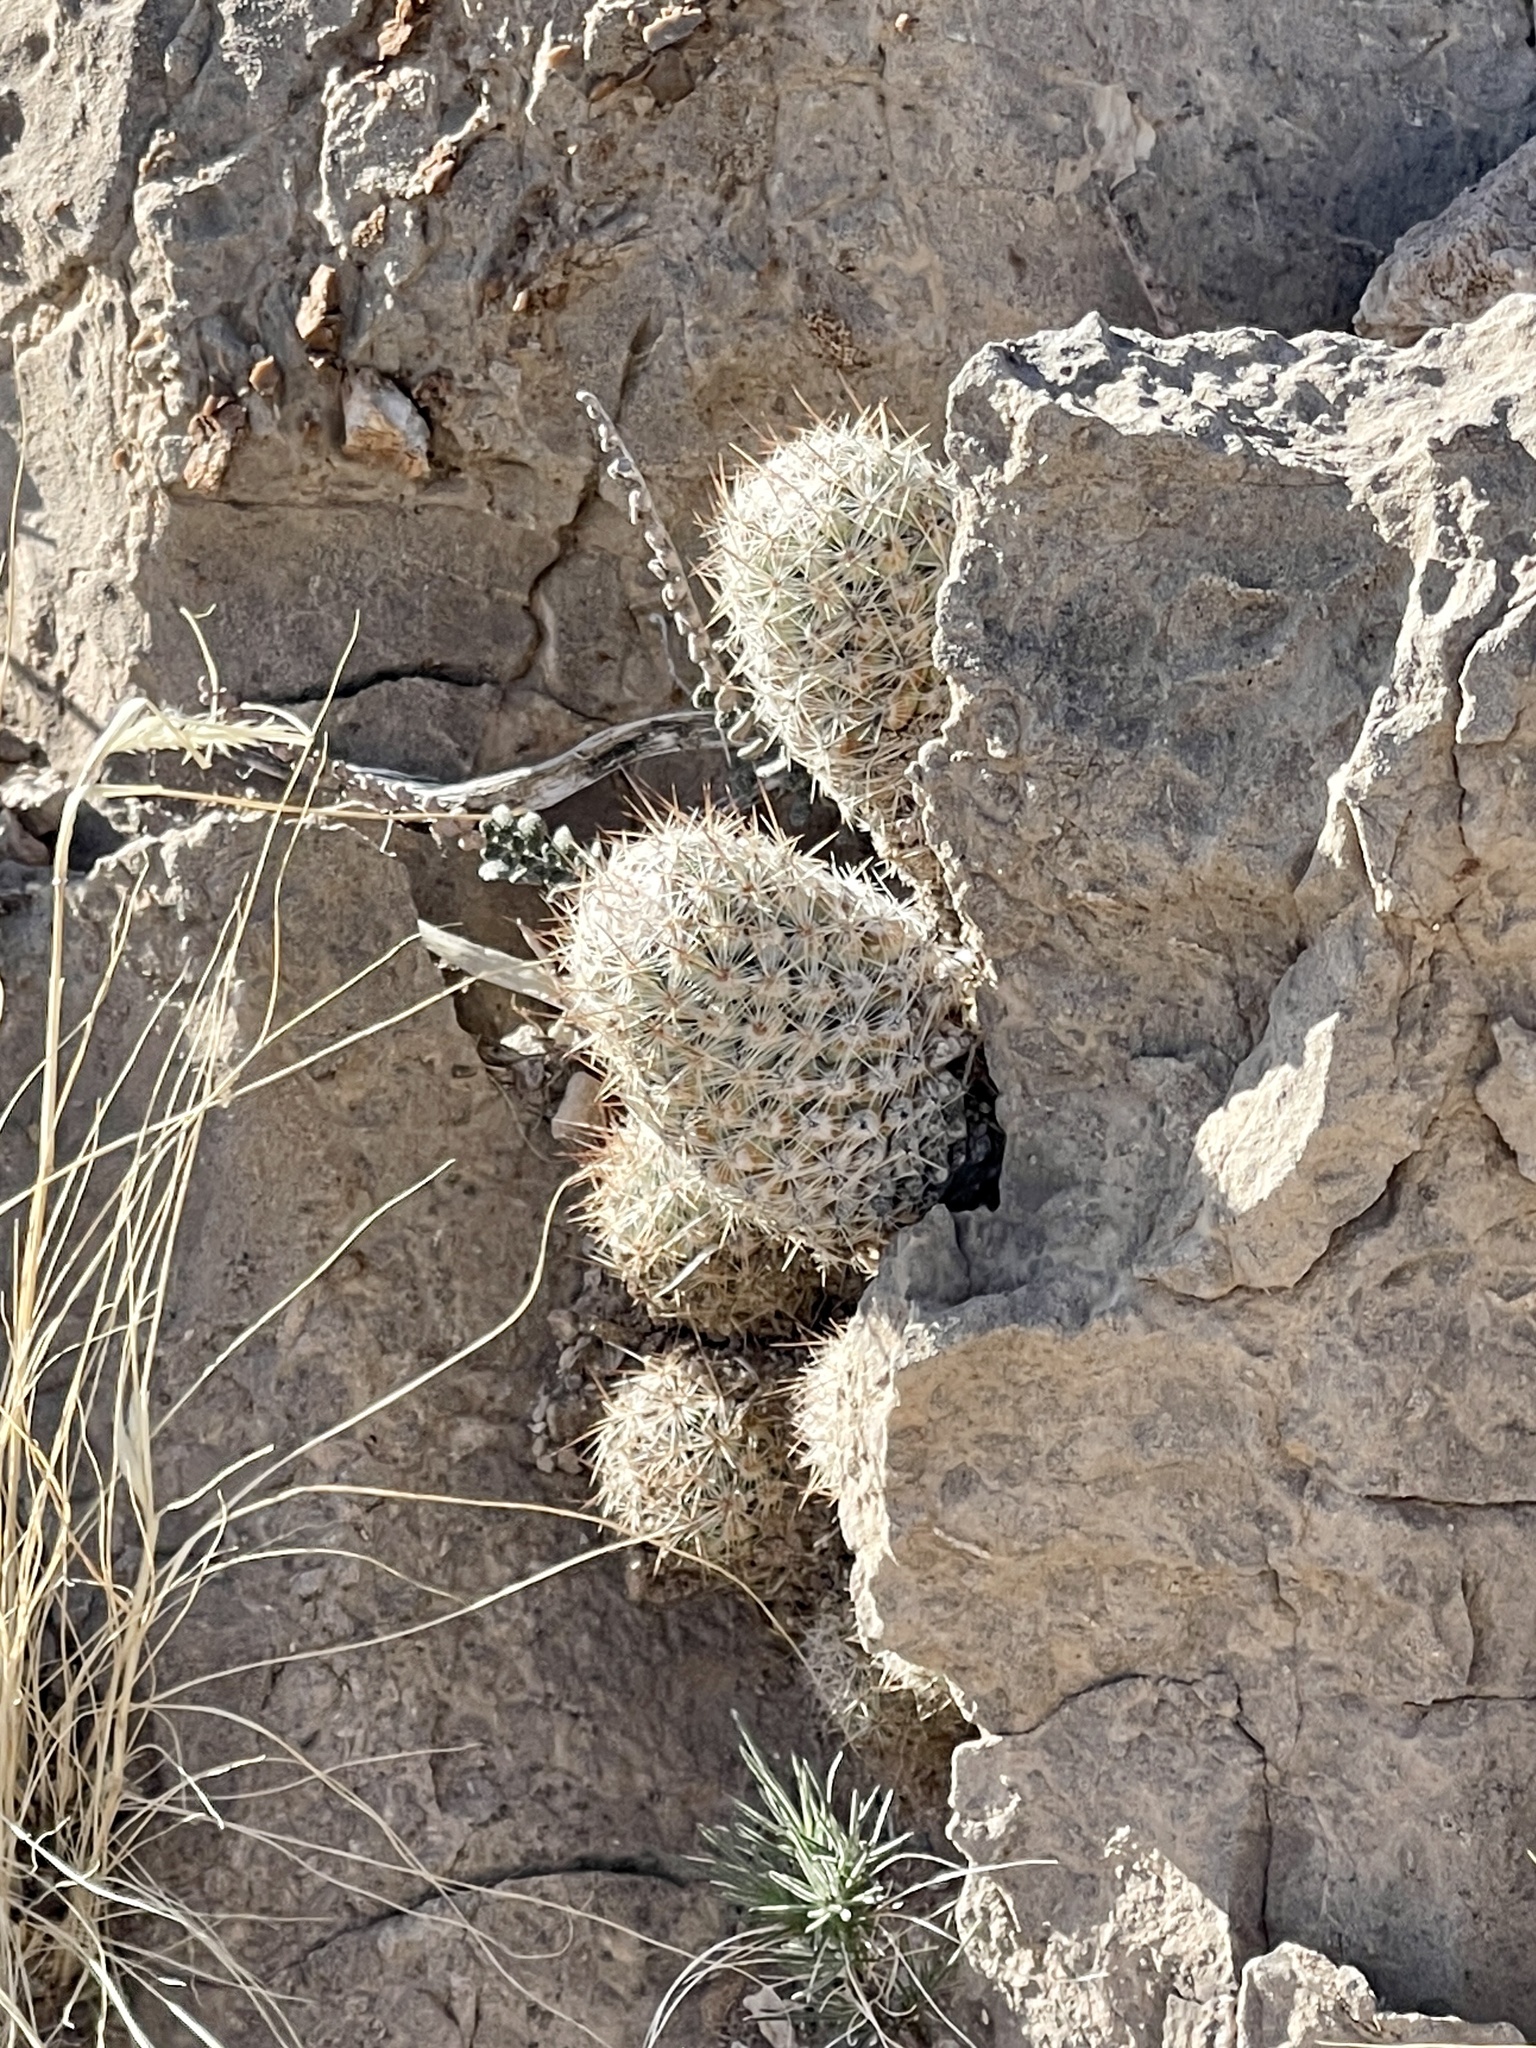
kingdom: Plantae
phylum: Tracheophyta
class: Magnoliopsida
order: Caryophyllales
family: Cactaceae
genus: Pelecyphora
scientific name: Pelecyphora tuberculosa
